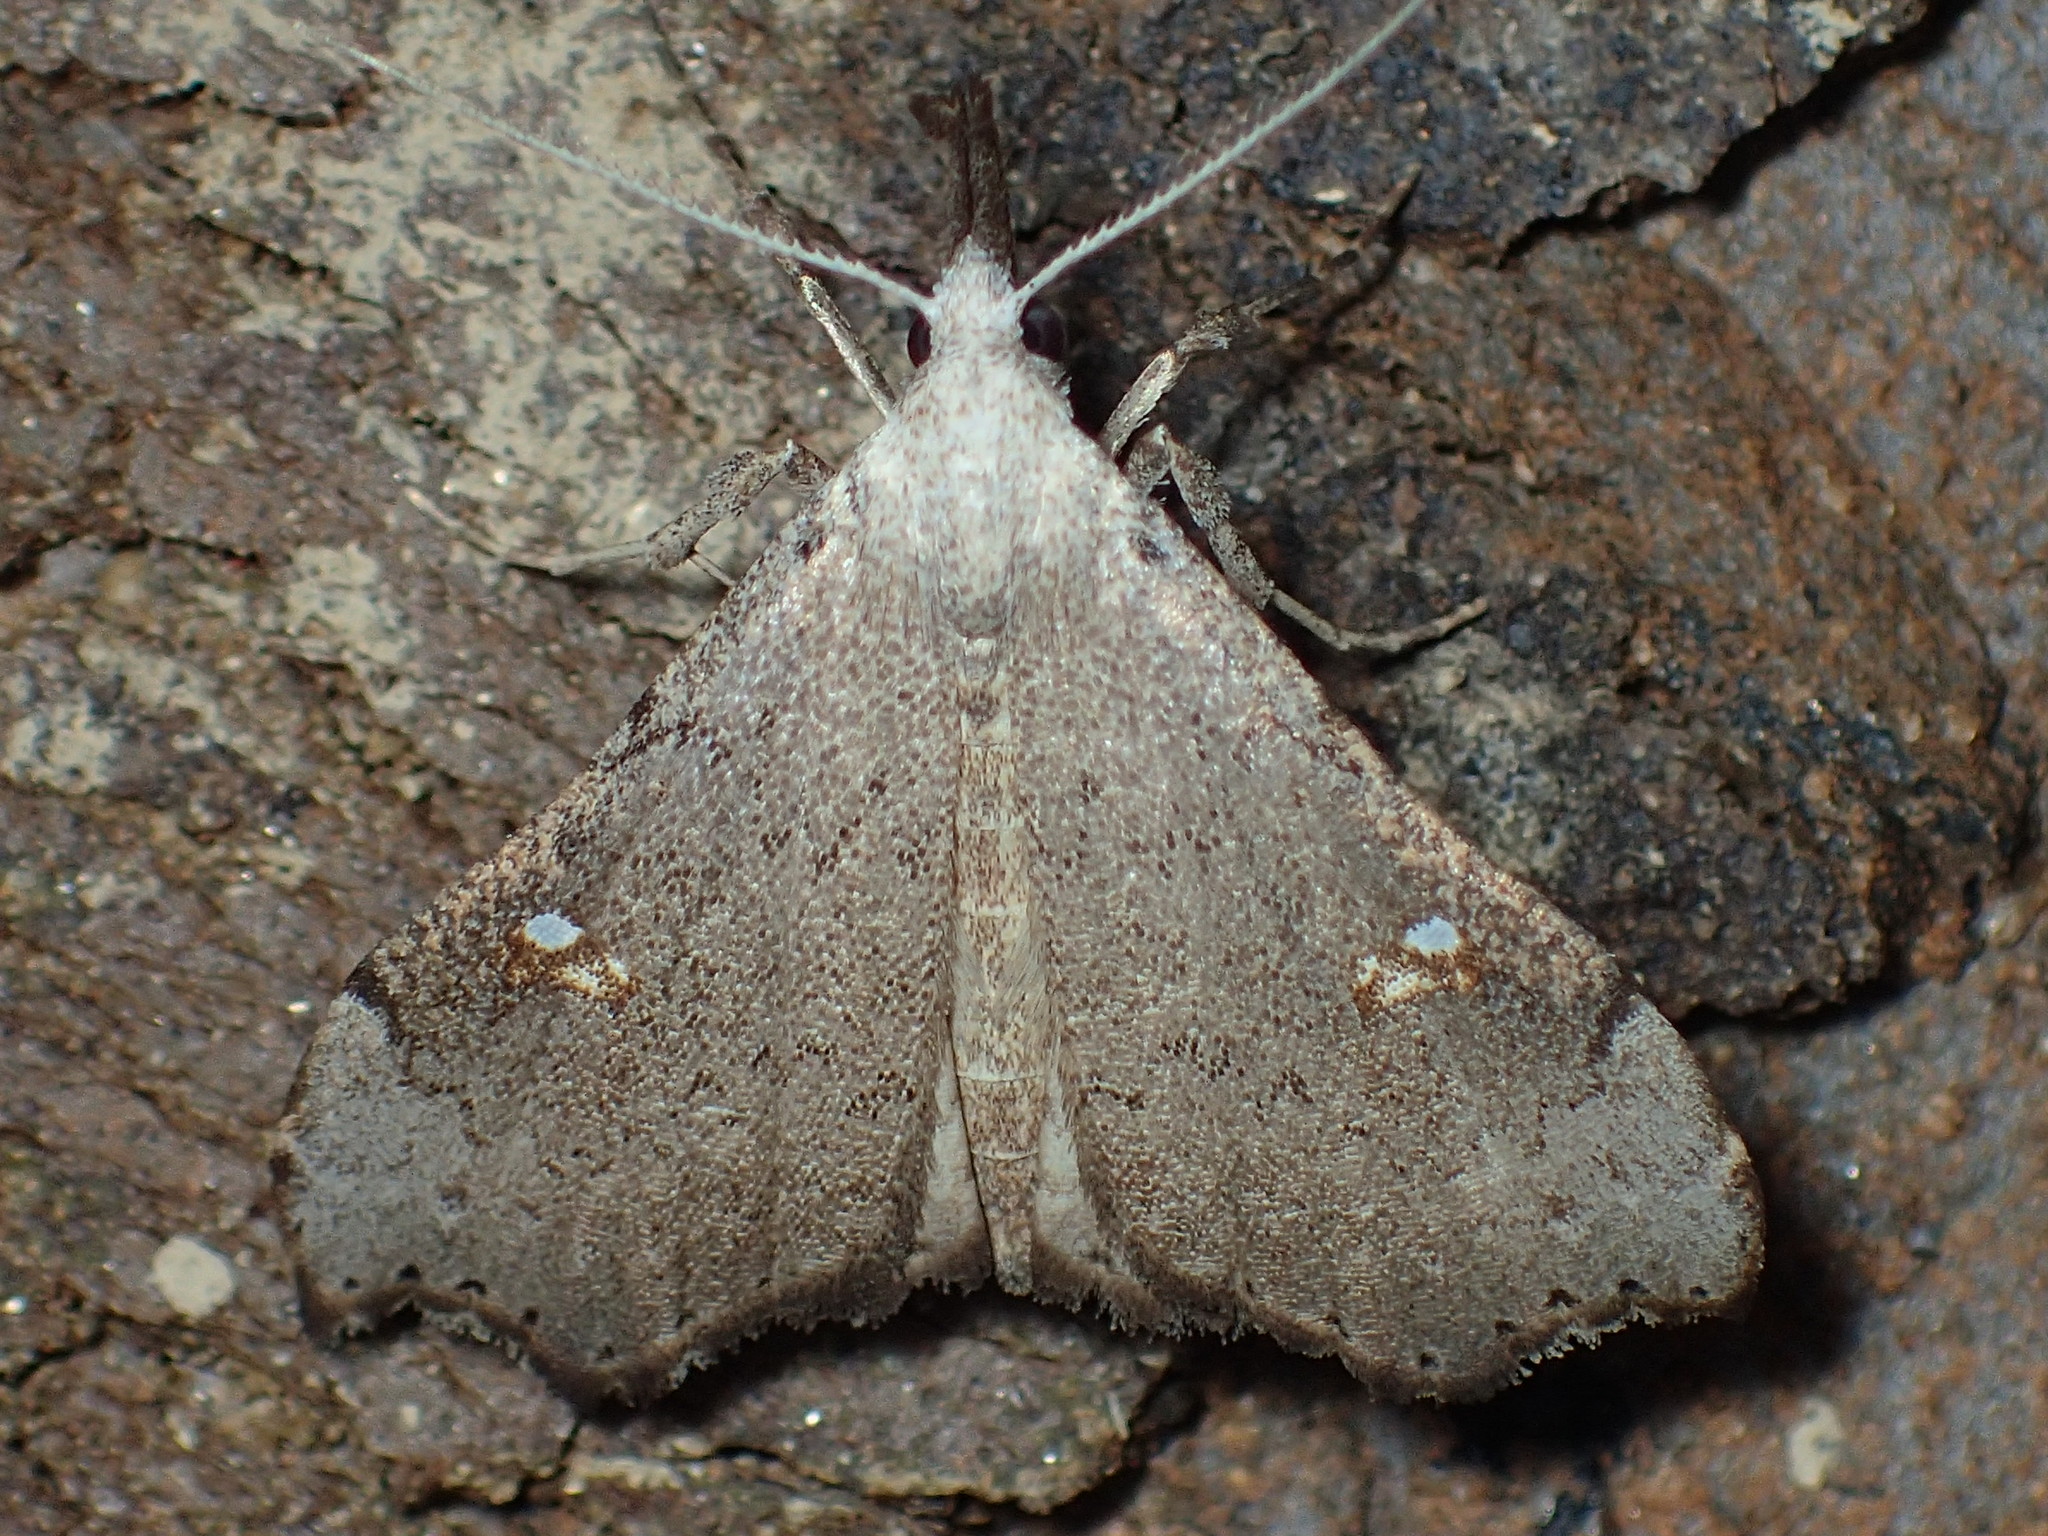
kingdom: Animalia
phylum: Arthropoda
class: Insecta
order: Lepidoptera
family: Erebidae
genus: Redectis
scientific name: Redectis vitrea
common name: White-spotted redectis
